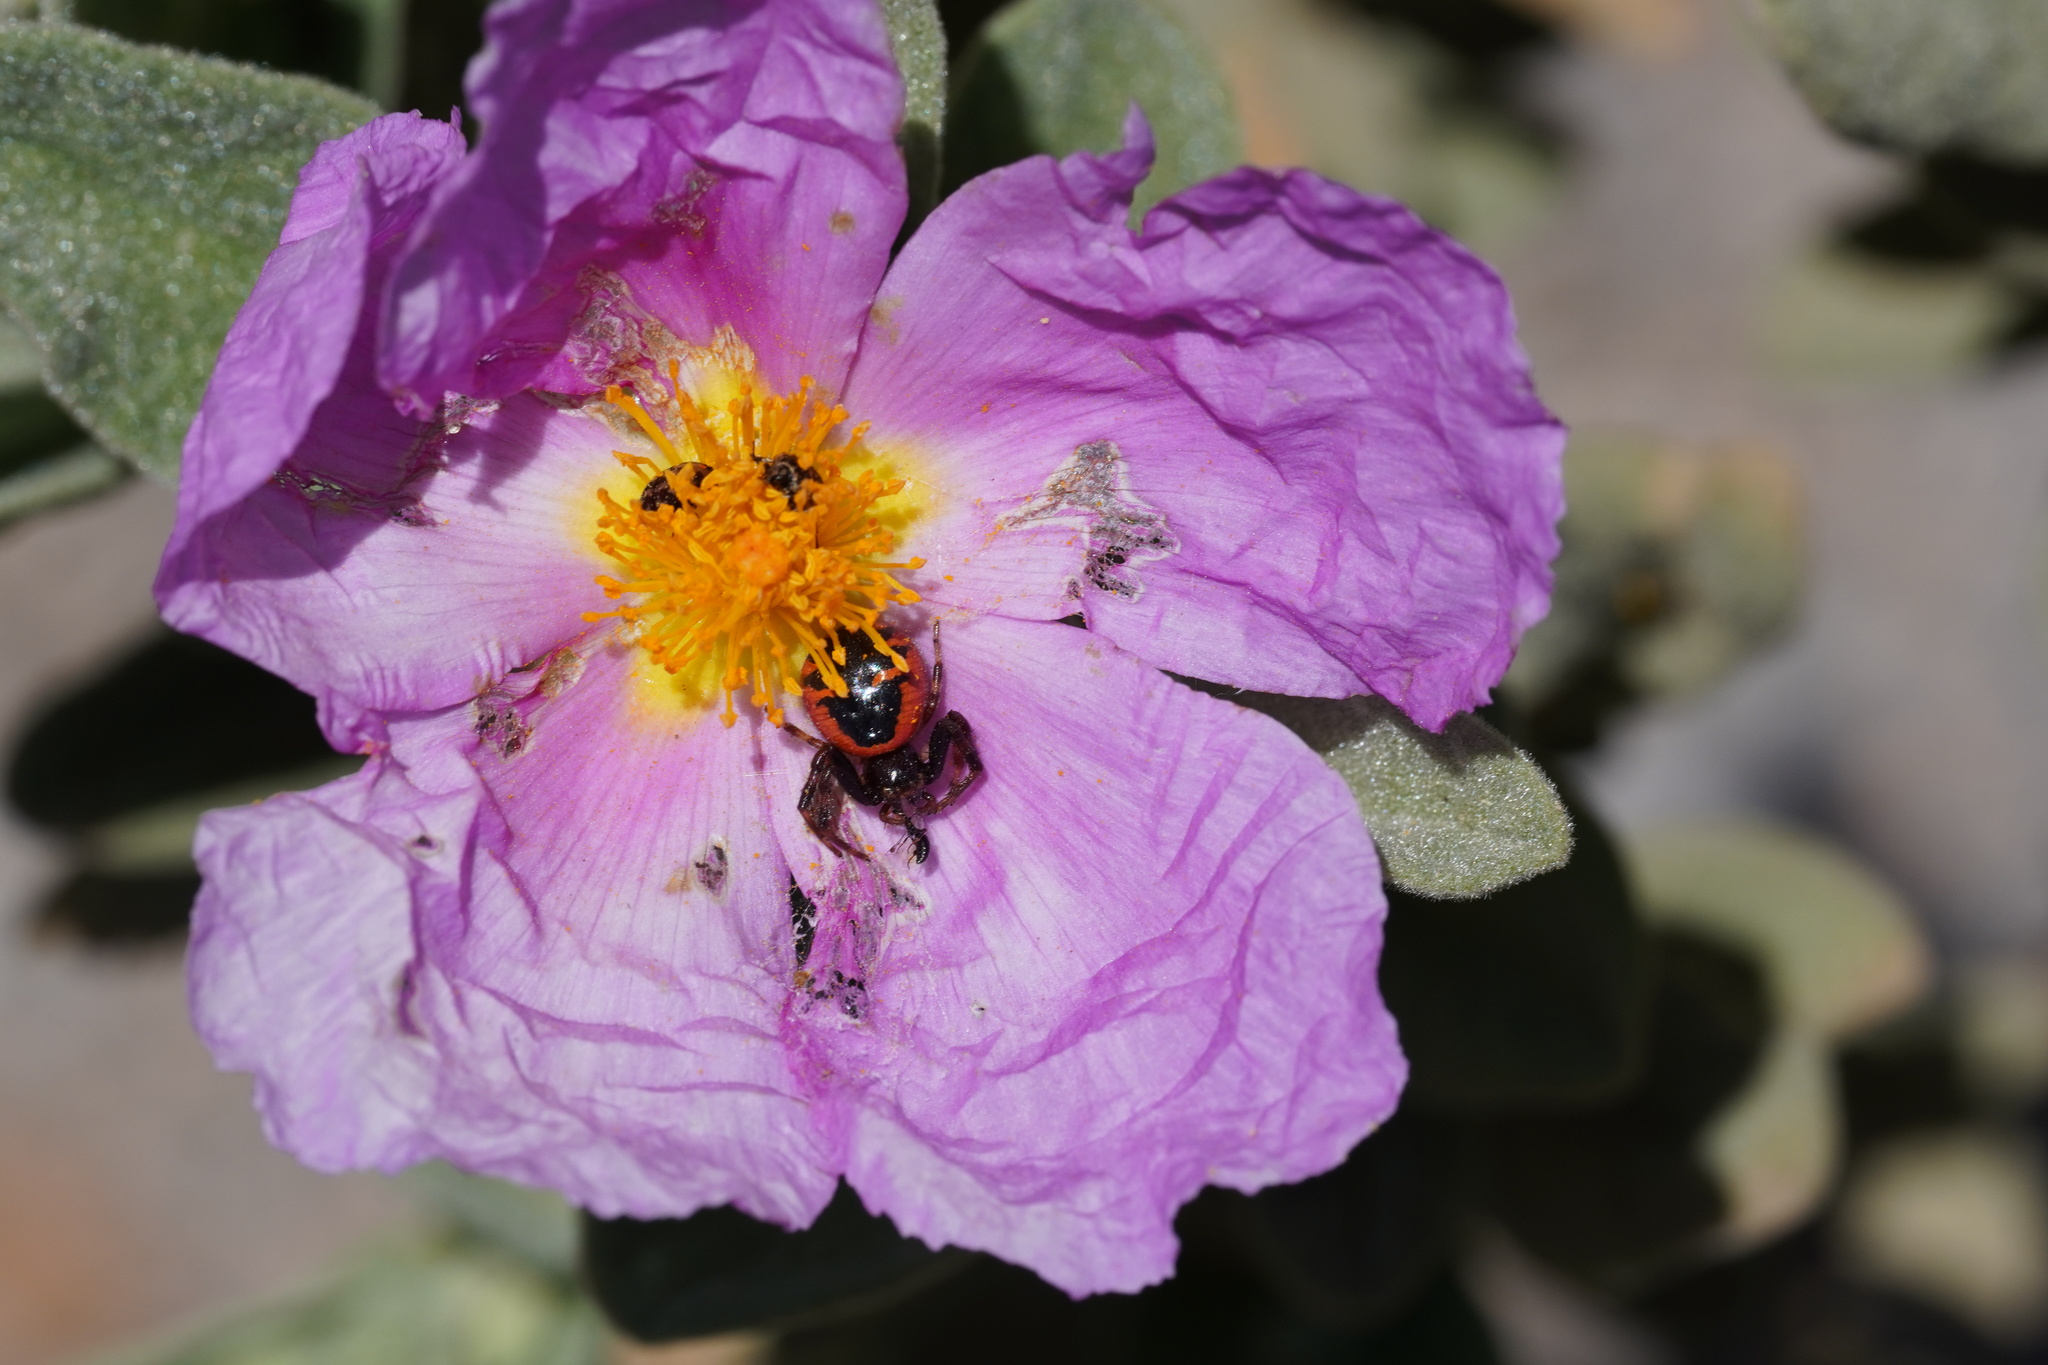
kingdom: Animalia
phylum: Arthropoda
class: Arachnida
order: Araneae
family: Thomisidae
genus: Synema
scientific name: Synema globosum
